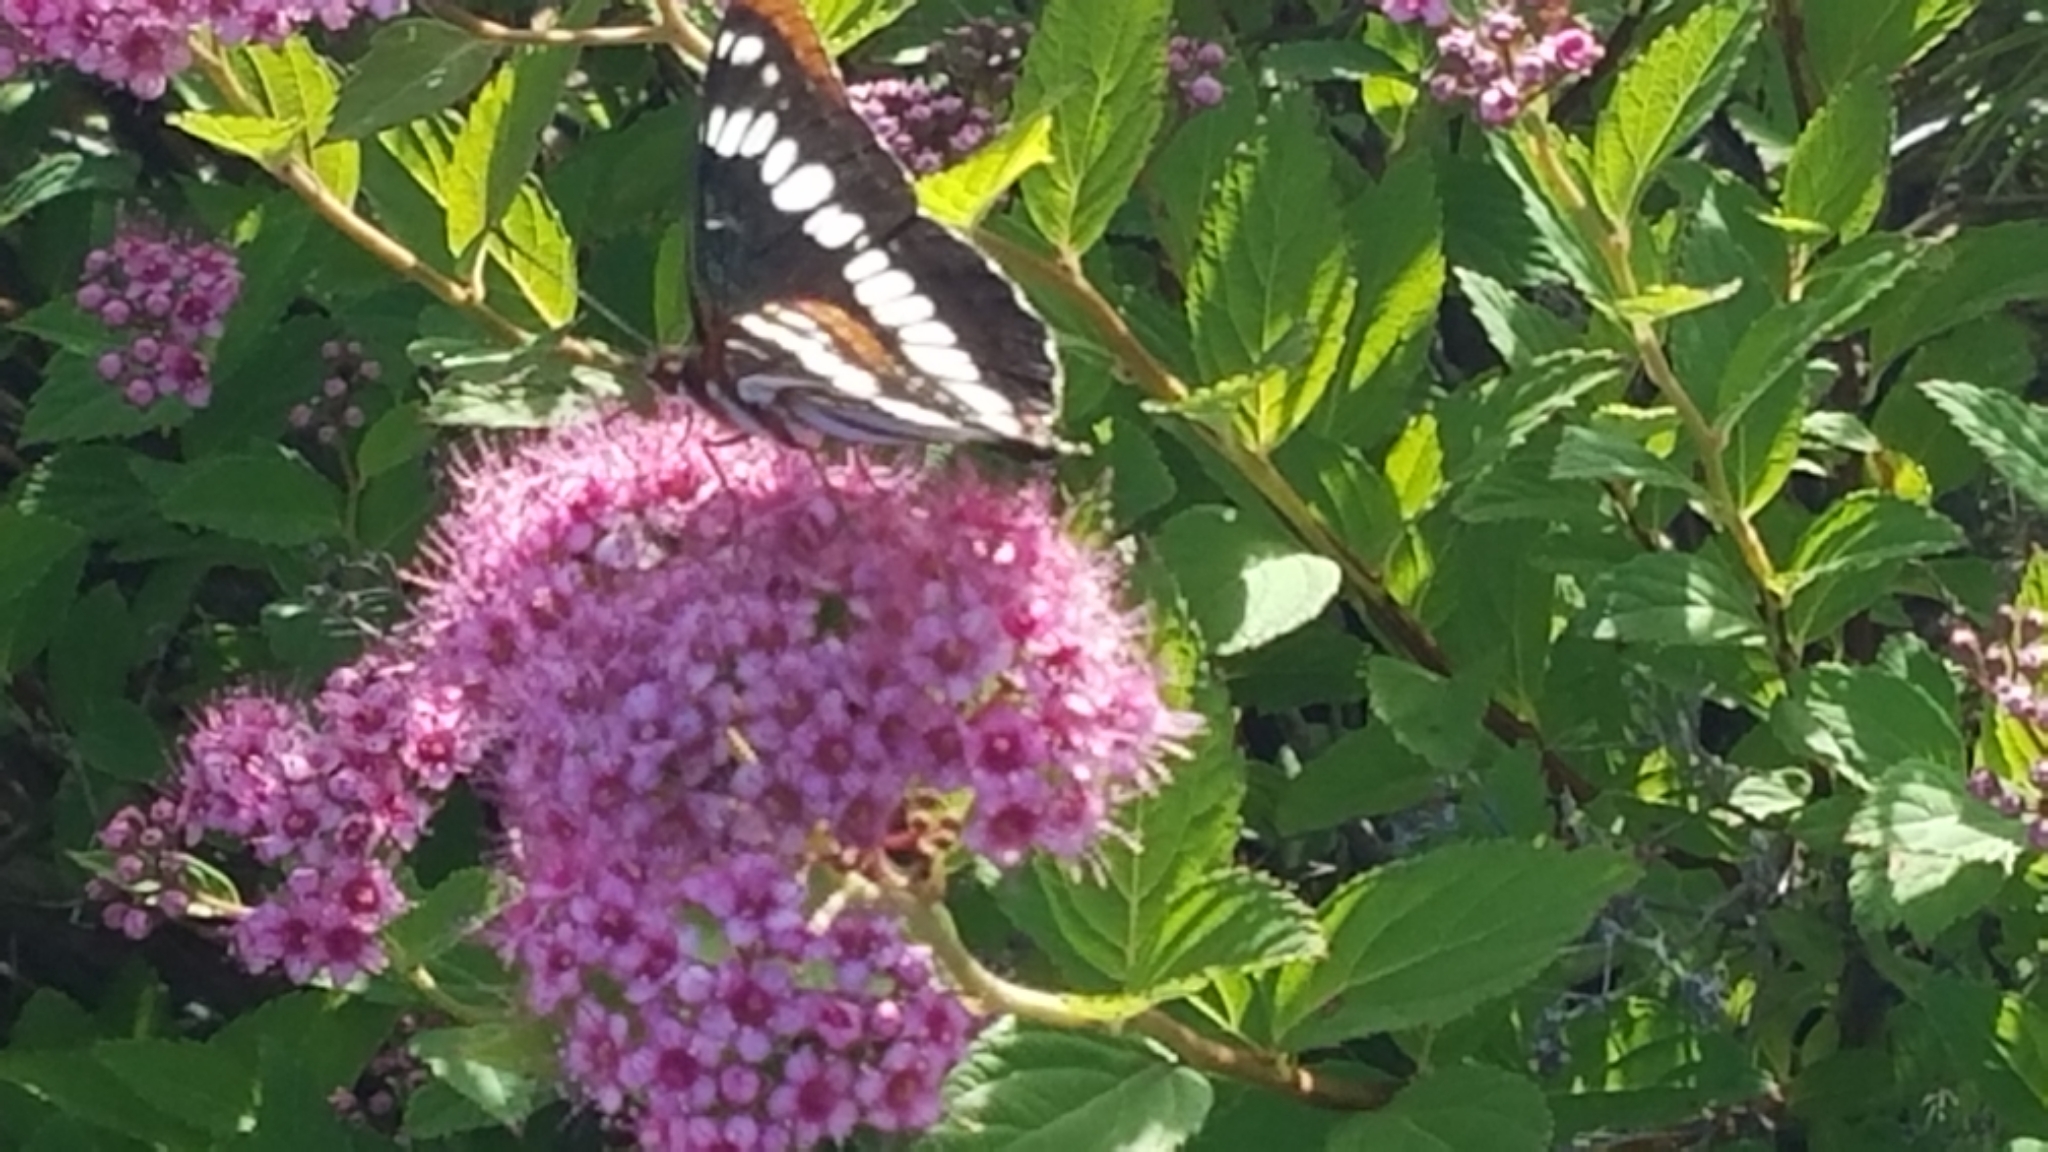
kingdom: Animalia
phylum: Arthropoda
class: Insecta
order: Lepidoptera
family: Nymphalidae
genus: Limenitis
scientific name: Limenitis lorquini
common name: Lorquin's admiral
